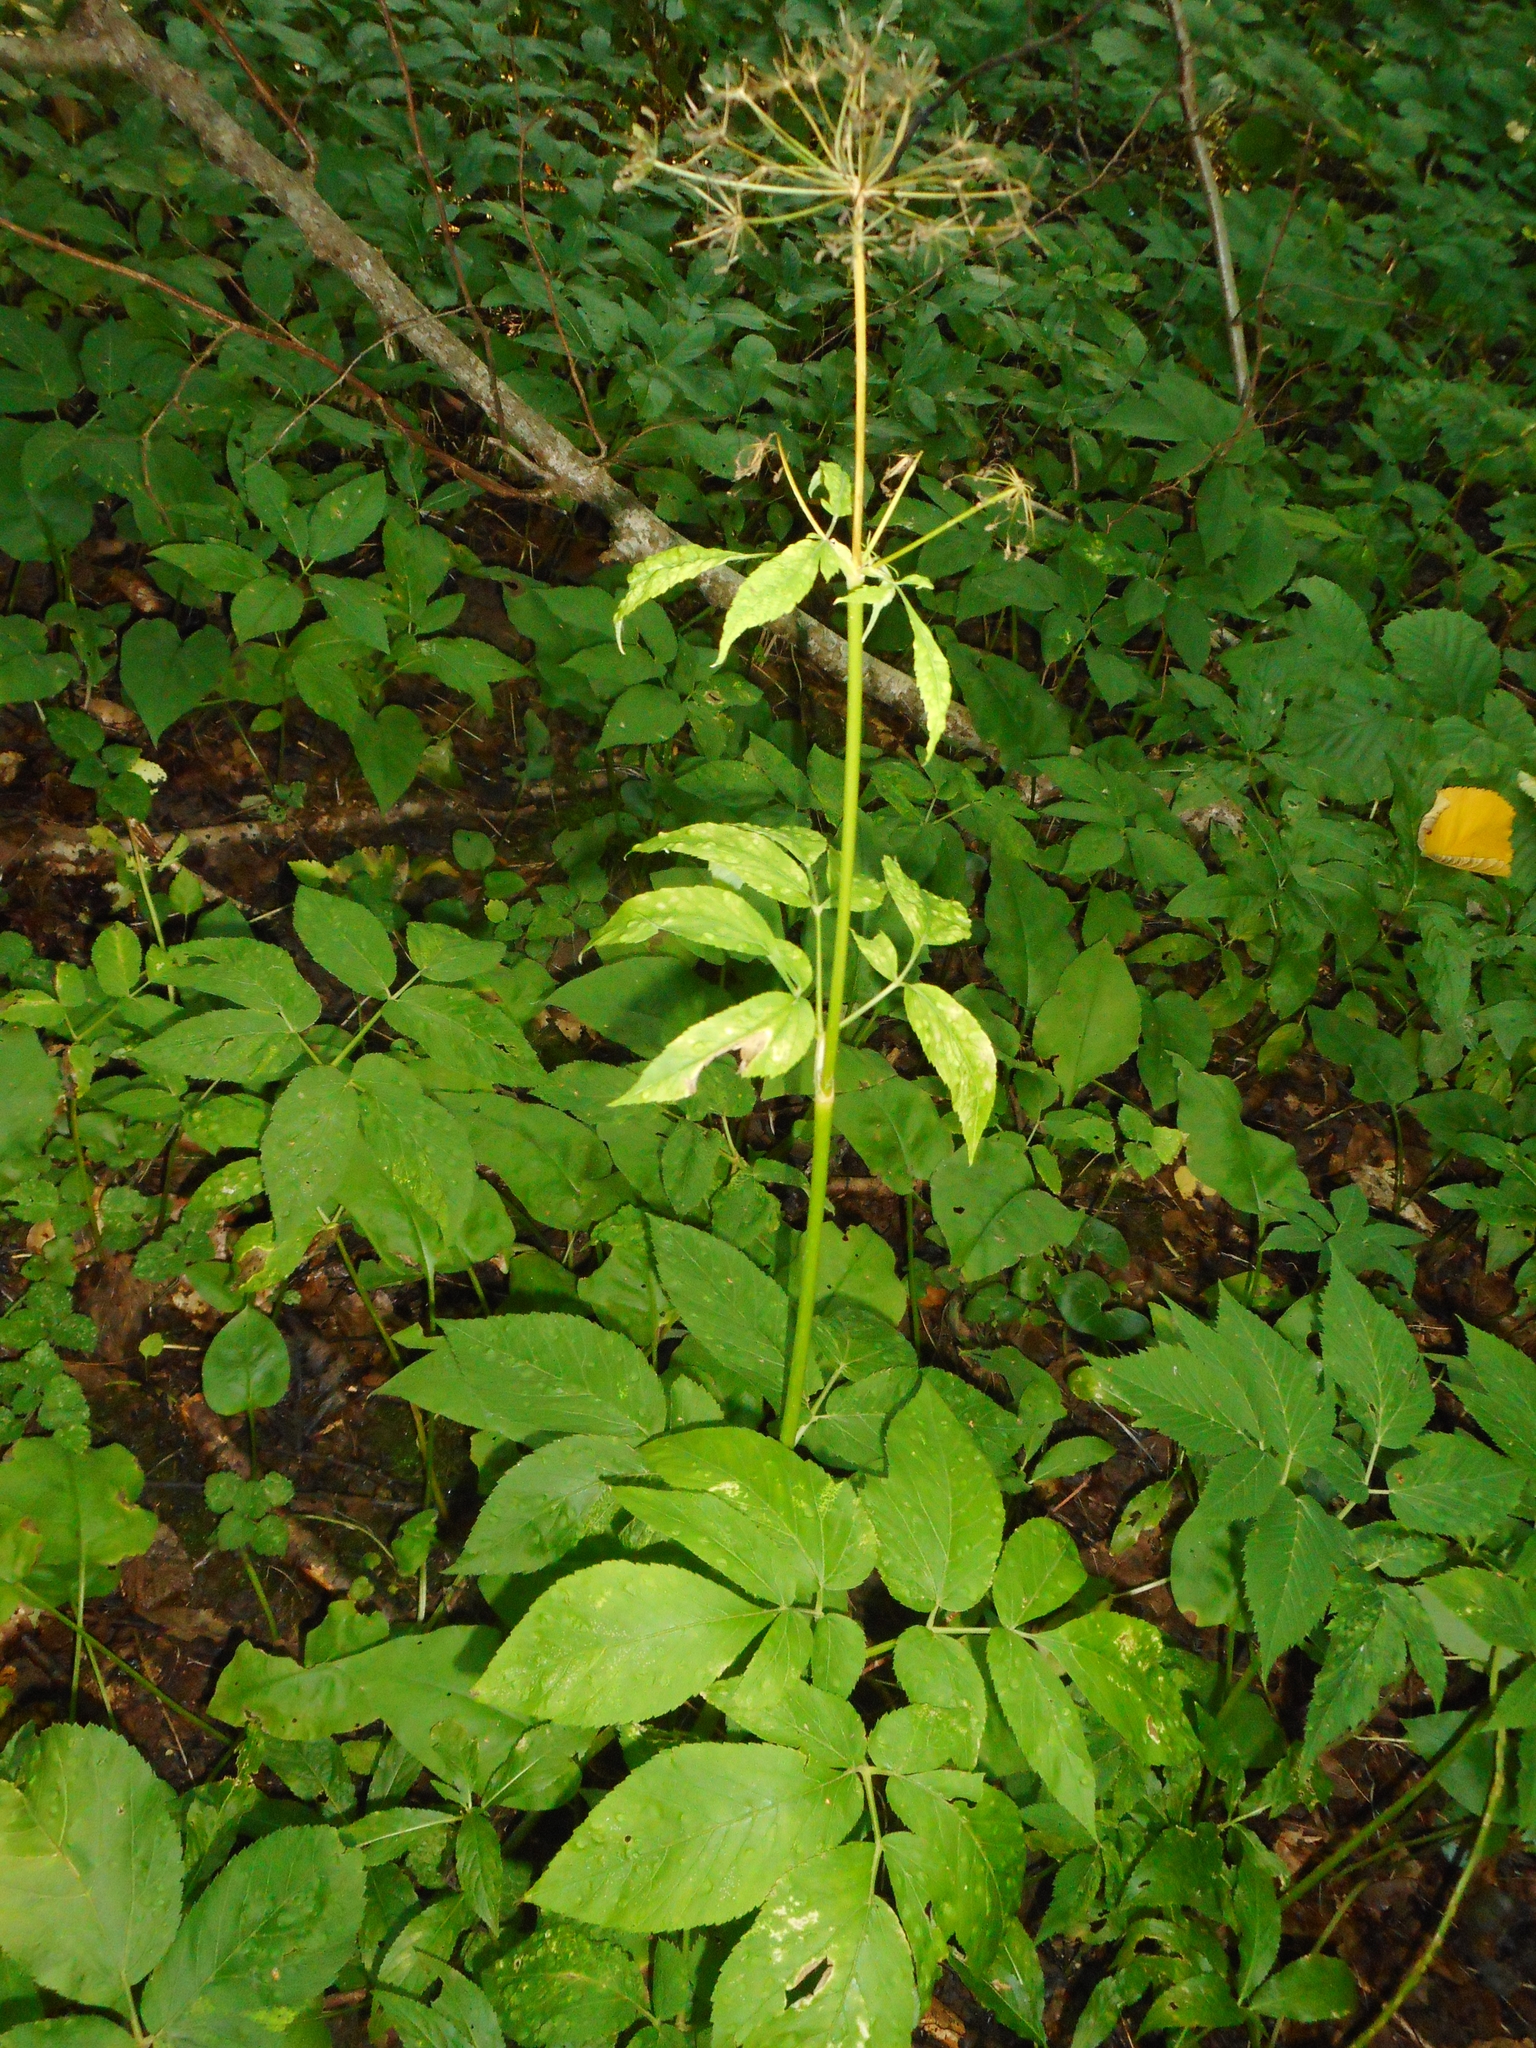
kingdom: Plantae
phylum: Tracheophyta
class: Magnoliopsida
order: Apiales
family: Apiaceae
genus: Aegopodium
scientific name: Aegopodium podagraria
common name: Ground-elder
